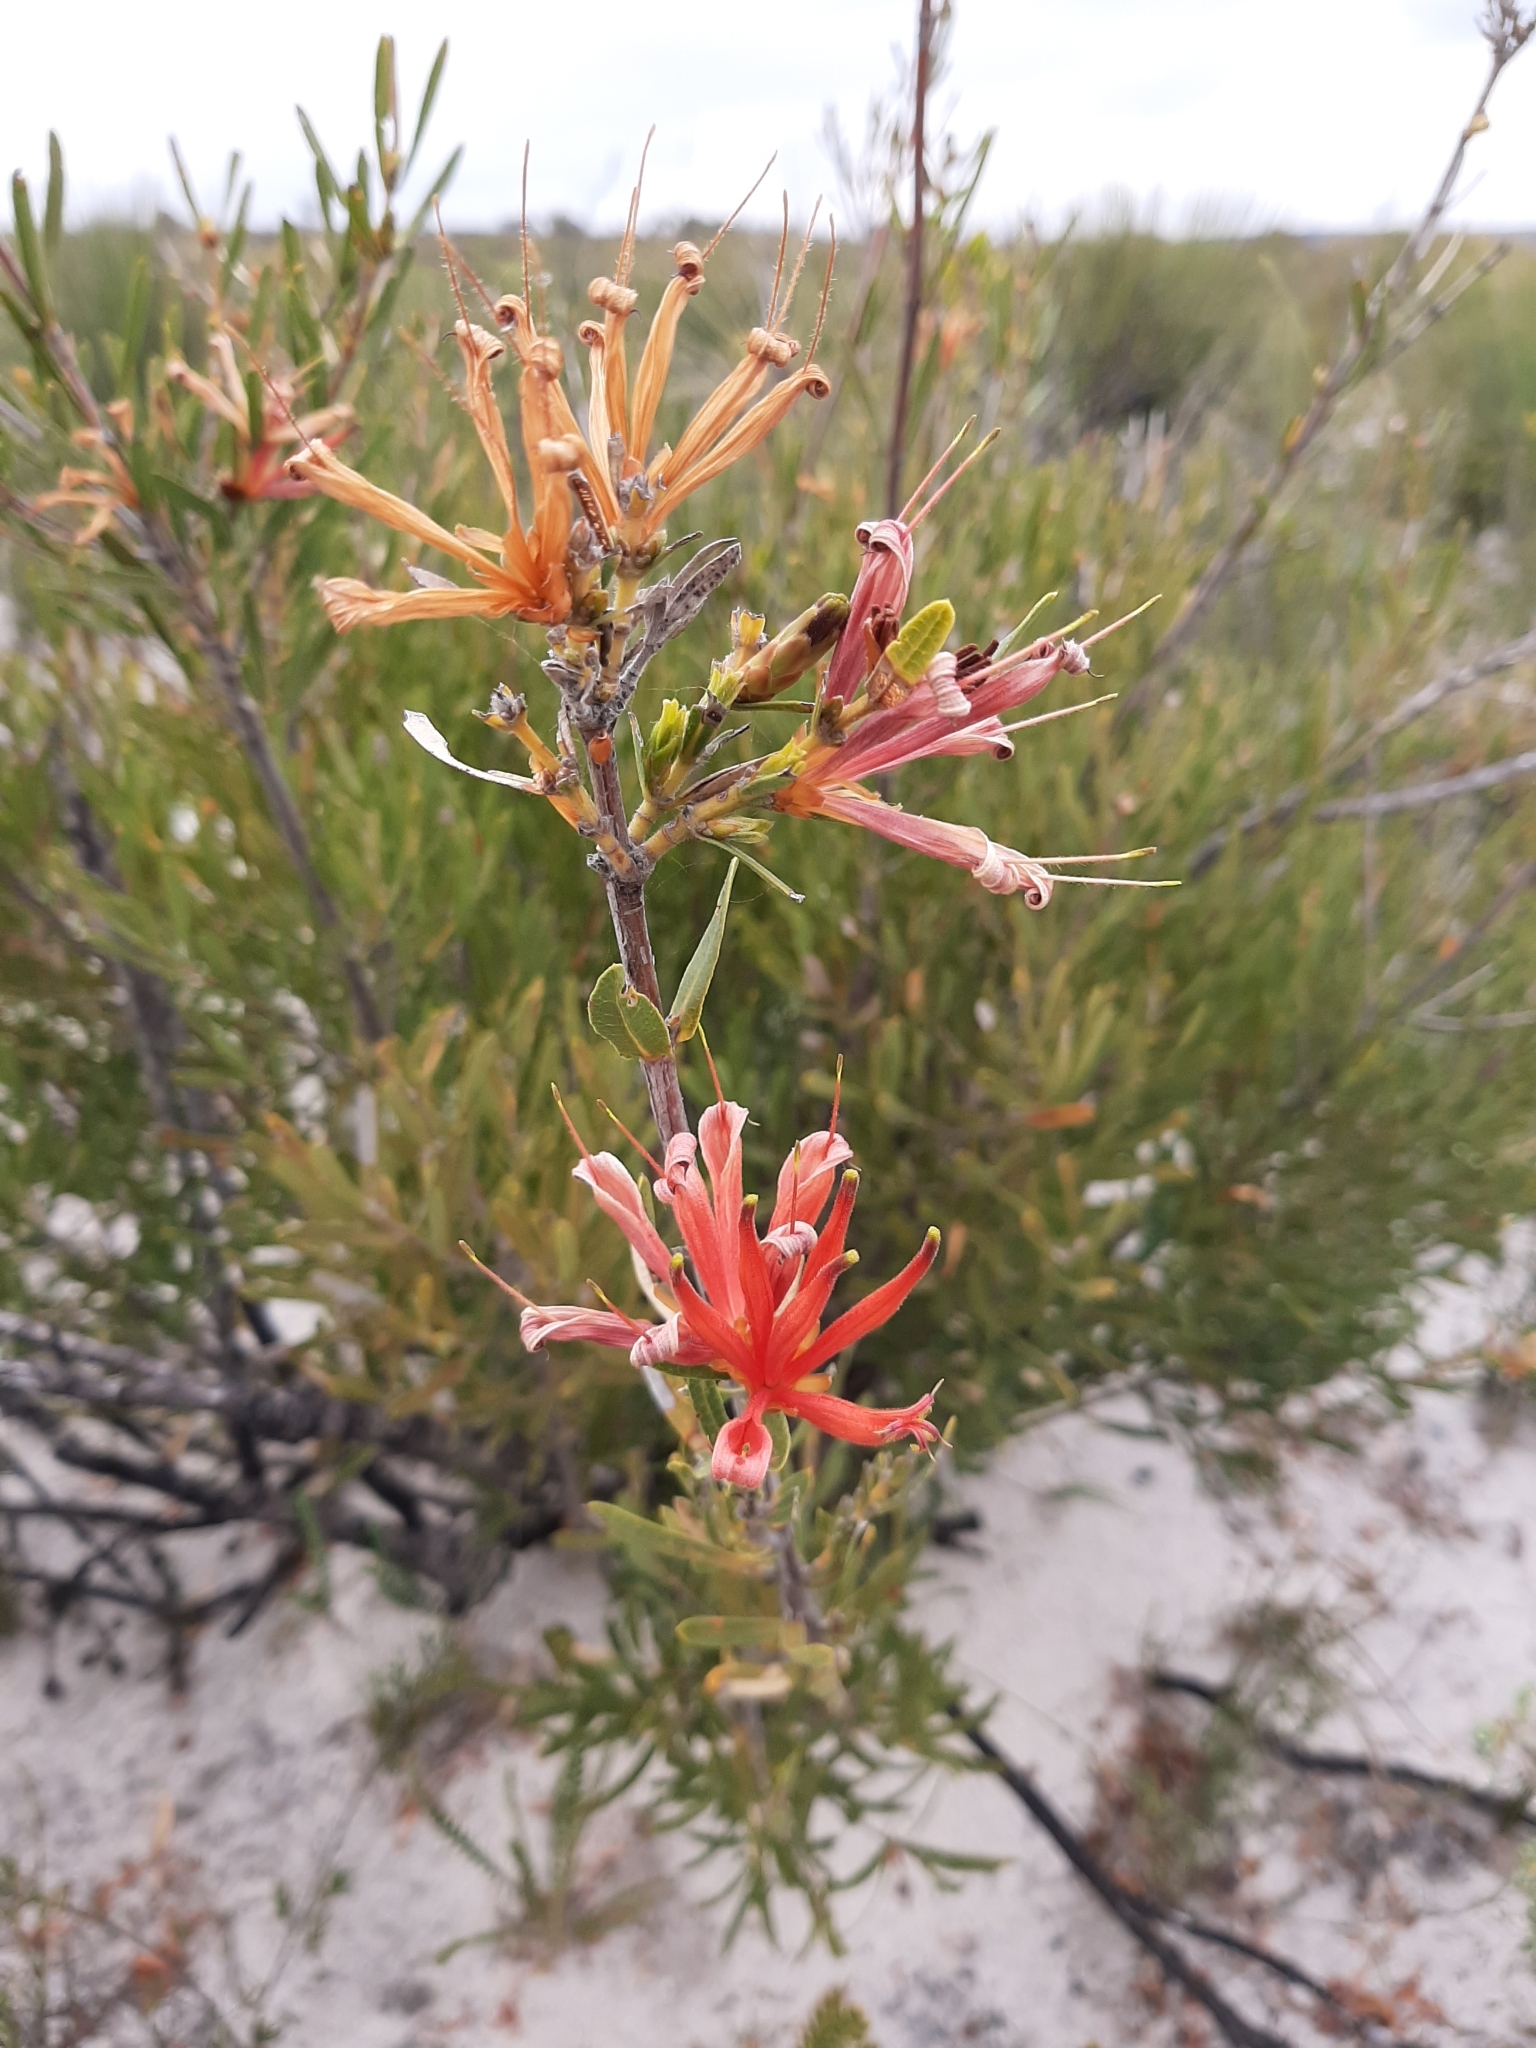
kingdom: Plantae
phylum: Tracheophyta
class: Magnoliopsida
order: Proteales
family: Proteaceae
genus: Lambertia
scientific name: Lambertia multiflora
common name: Many-flowered honeysuckle
